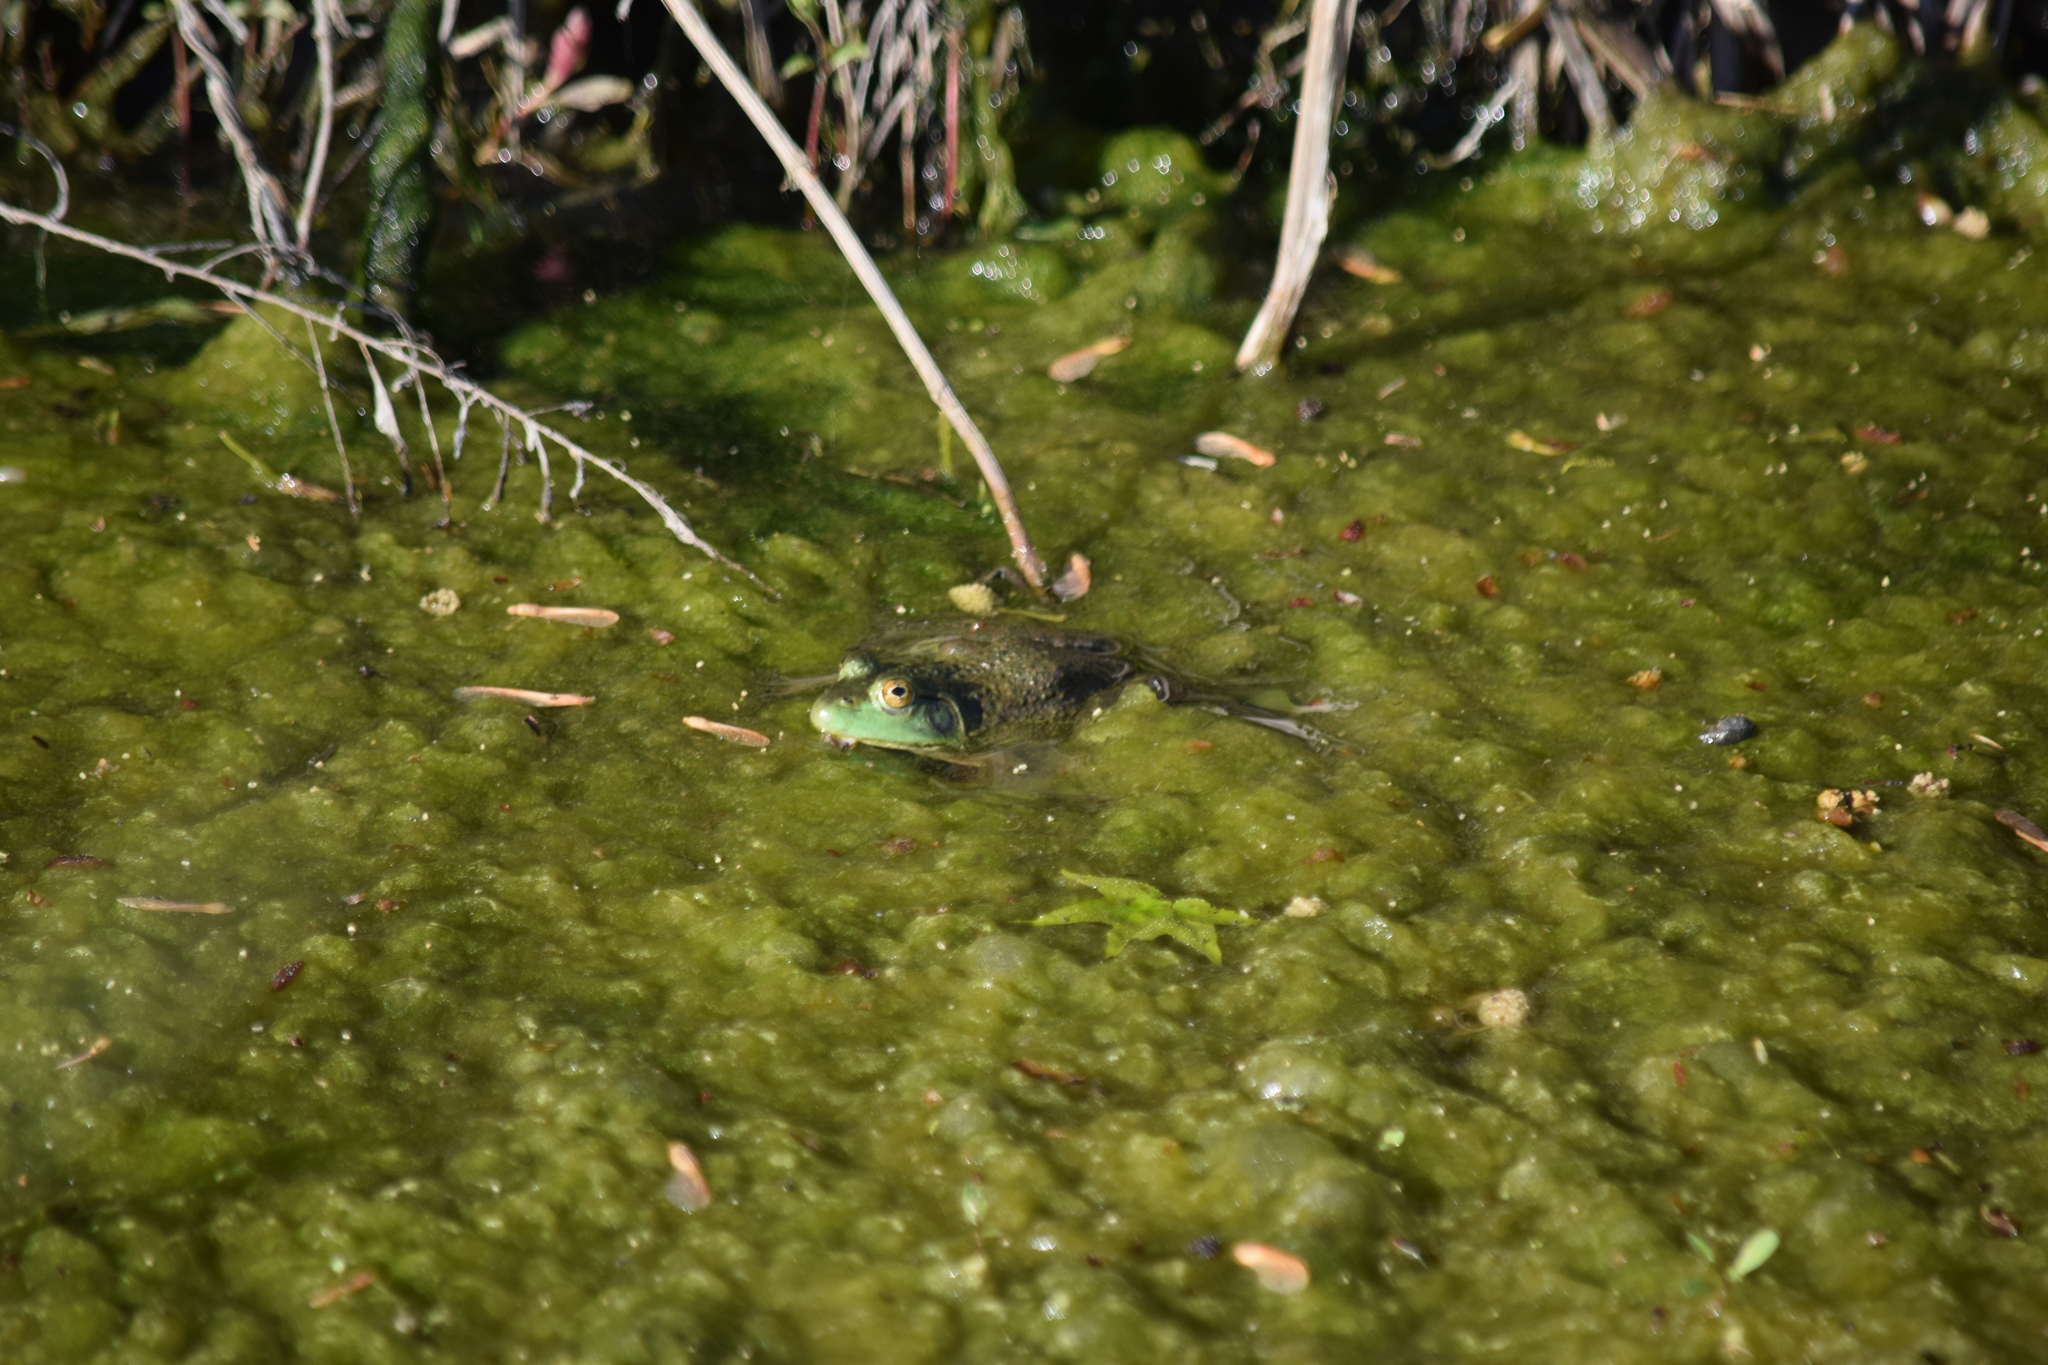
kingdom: Animalia
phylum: Chordata
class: Amphibia
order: Anura
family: Ranidae
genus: Lithobates
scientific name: Lithobates catesbeianus
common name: American bullfrog
